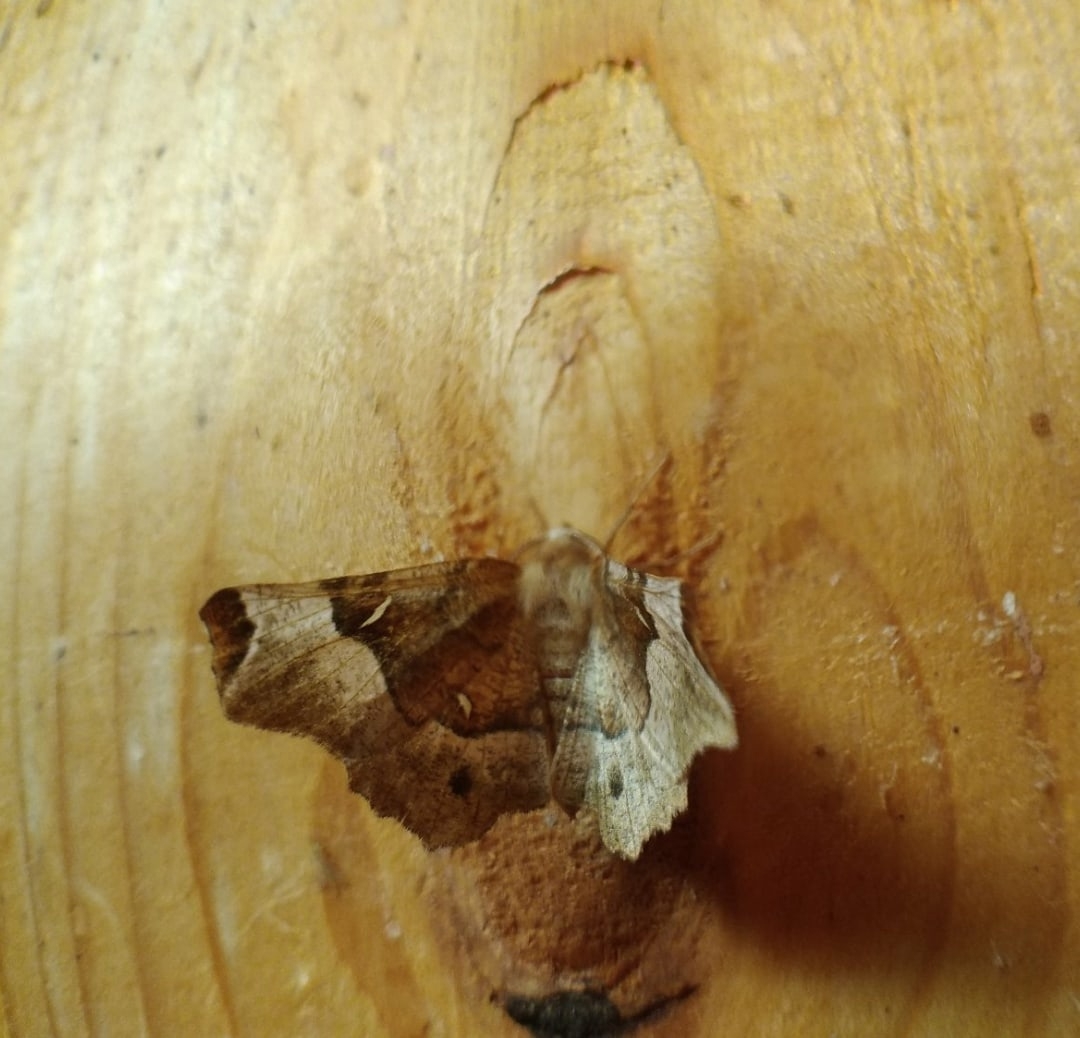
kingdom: Animalia
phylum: Arthropoda
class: Insecta
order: Lepidoptera
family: Geometridae
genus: Selenia
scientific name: Selenia tetralunaria
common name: Purple thorn
